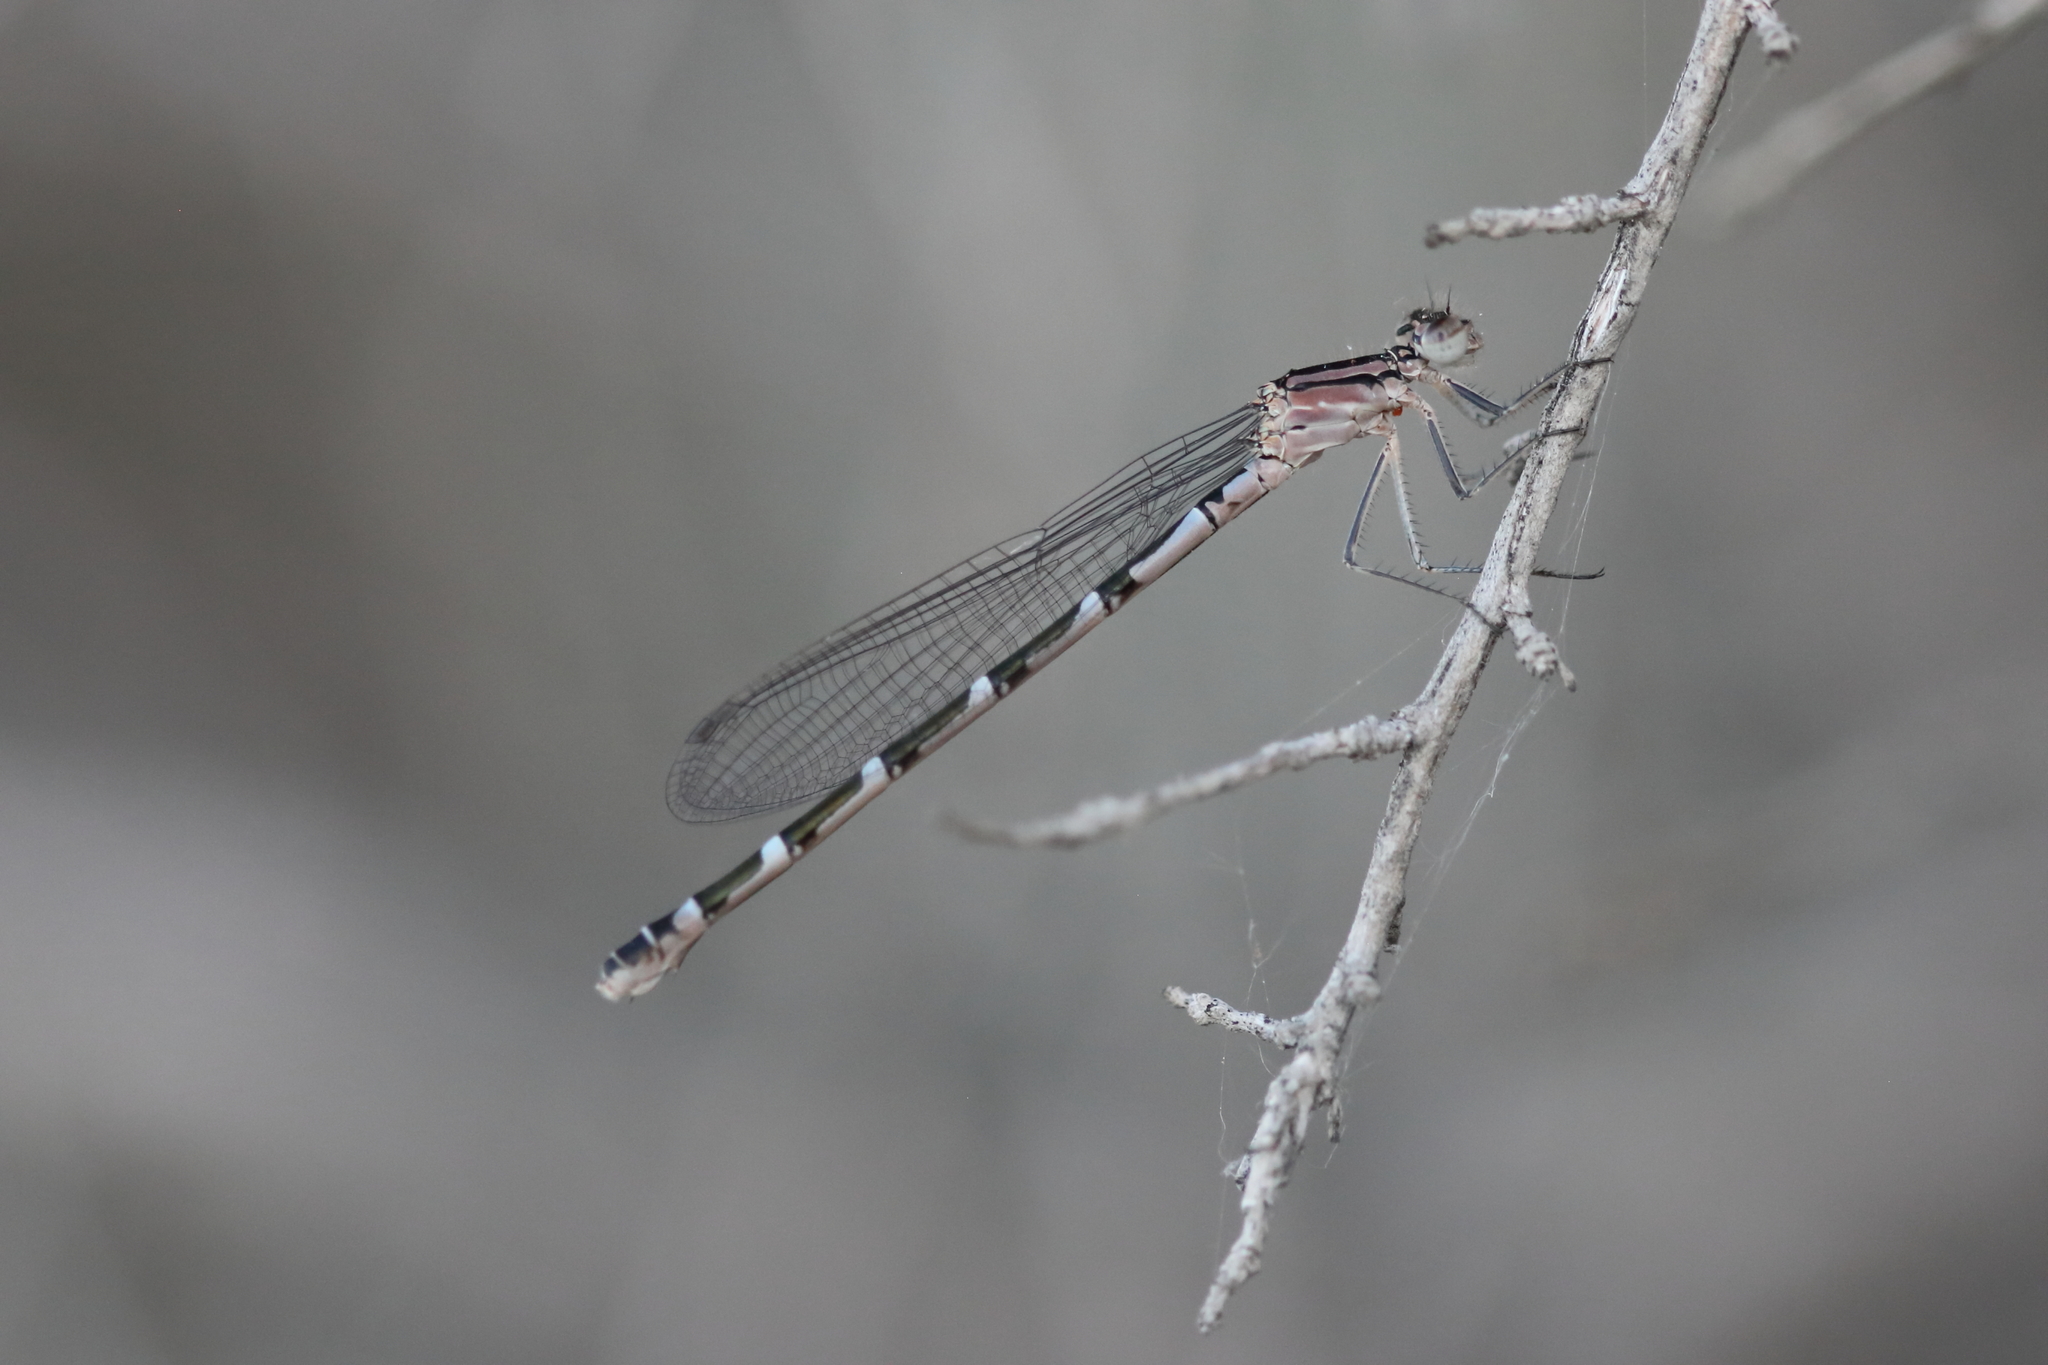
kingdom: Animalia
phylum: Arthropoda
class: Insecta
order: Odonata
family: Coenagrionidae
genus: Enallagma
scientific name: Enallagma
